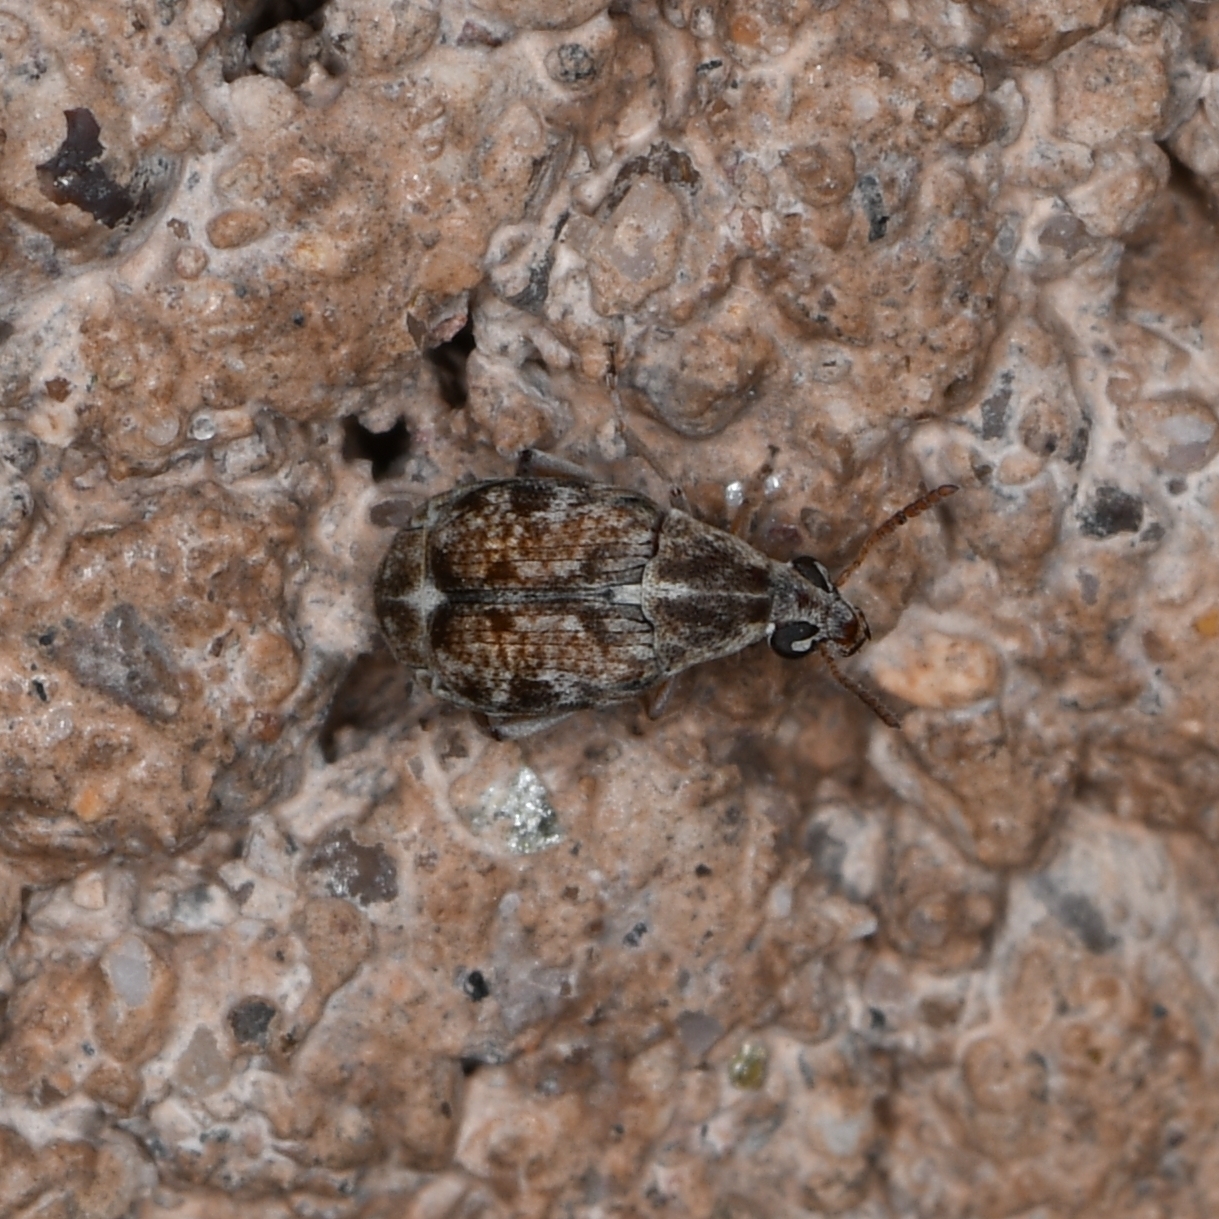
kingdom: Animalia
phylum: Arthropoda
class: Insecta
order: Coleoptera
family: Chrysomelidae
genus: Algarobius
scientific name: Algarobius prosopis
